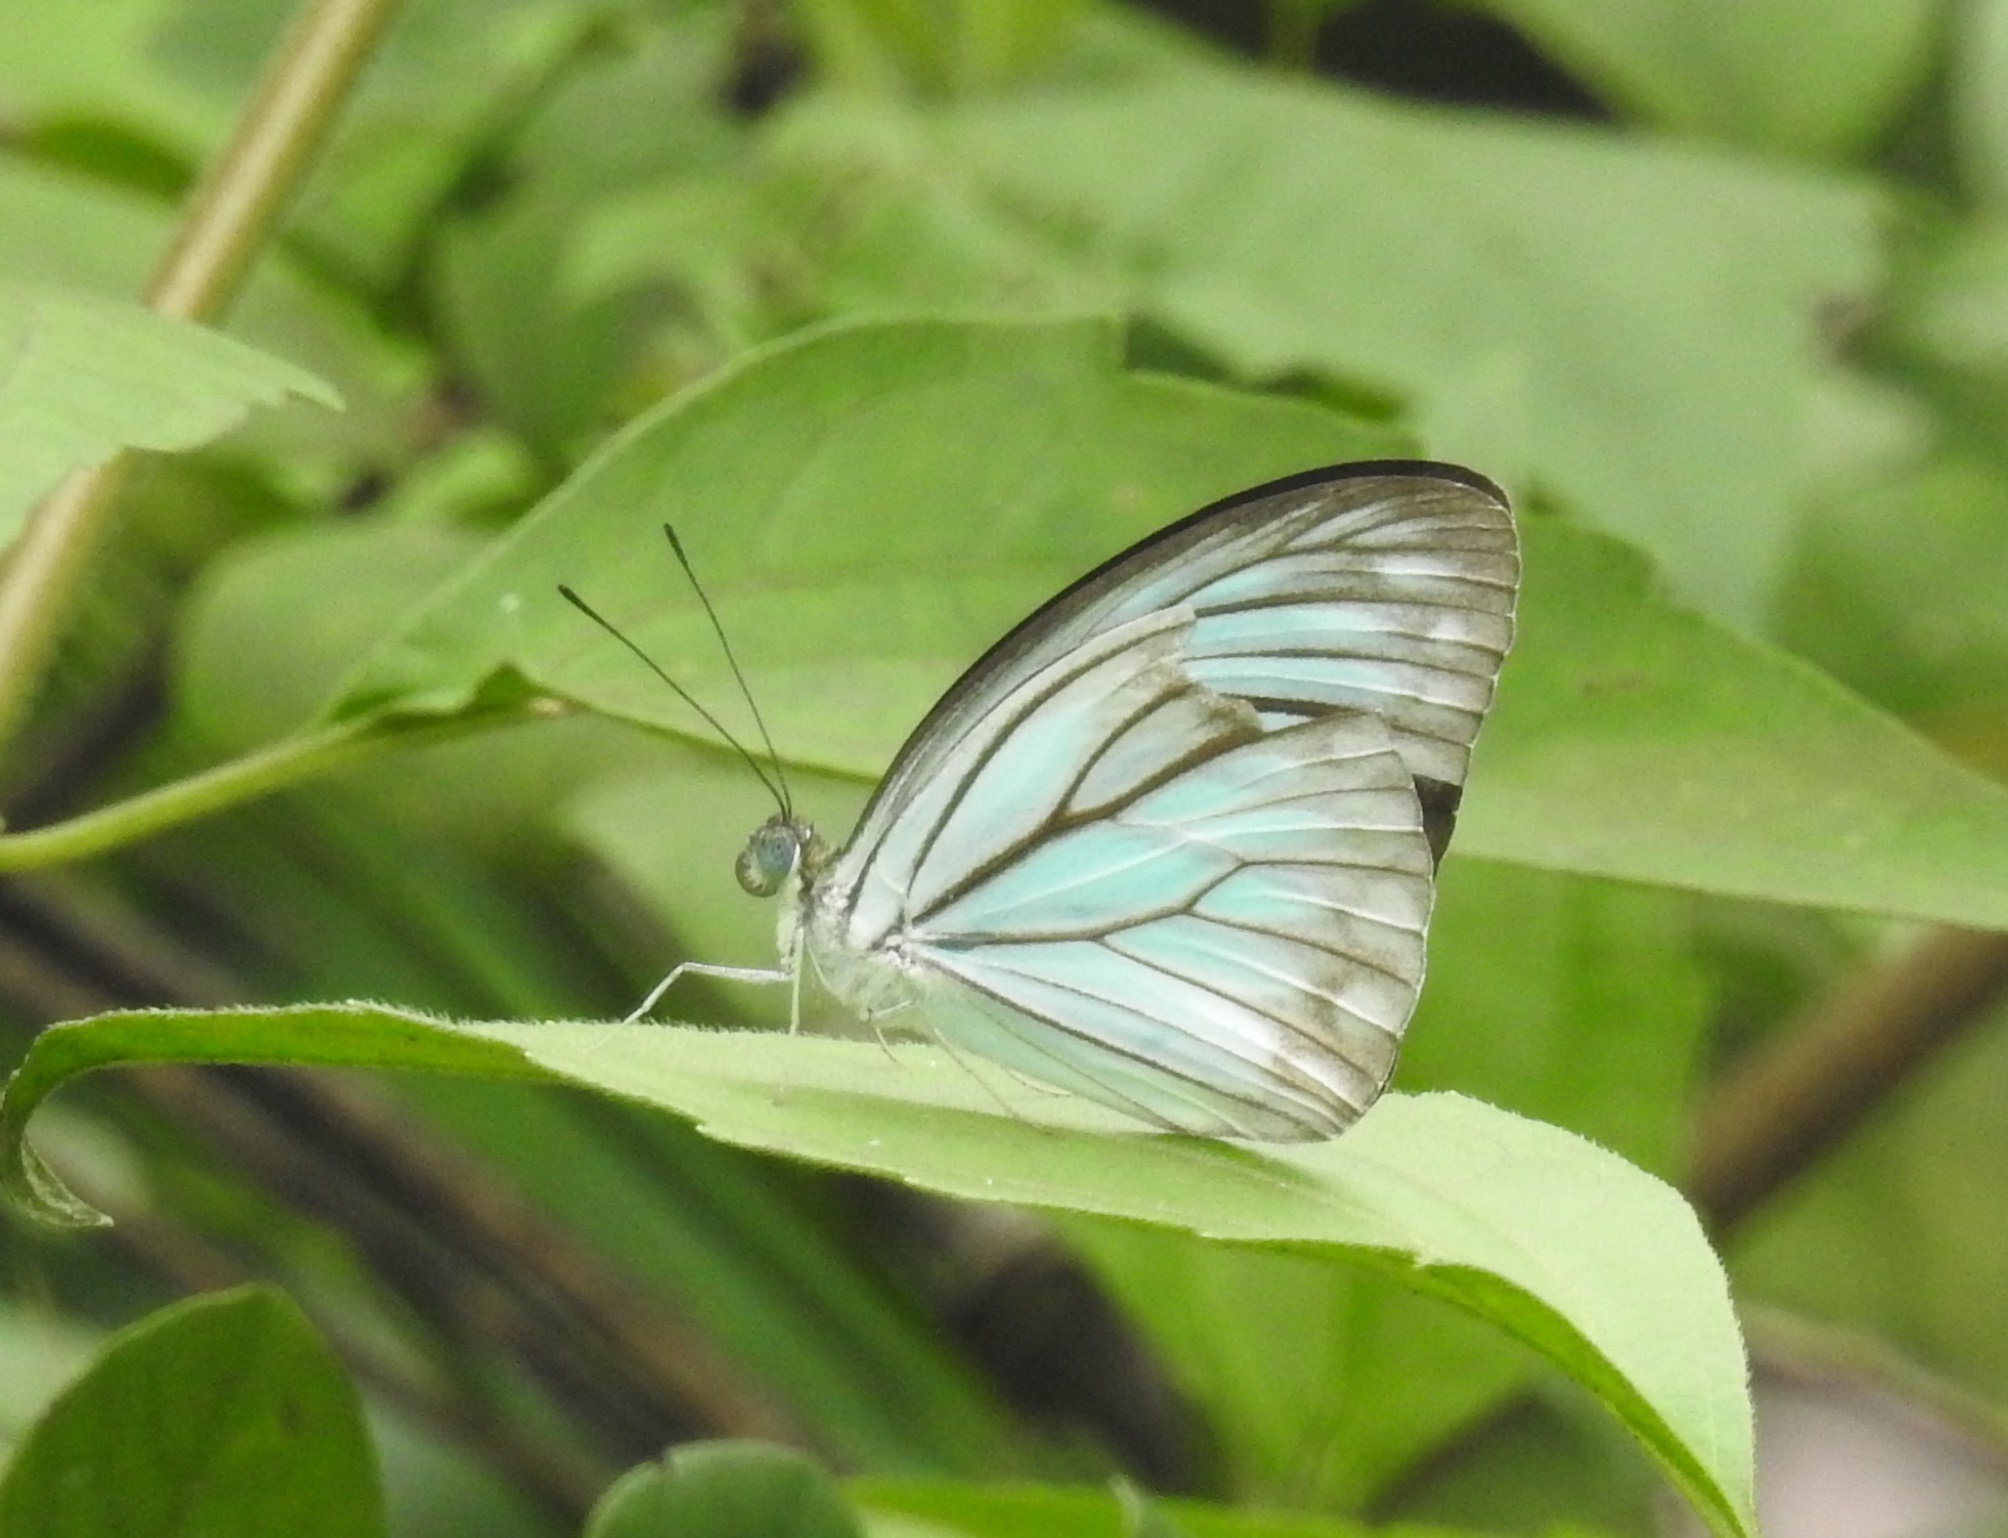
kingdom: Animalia
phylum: Arthropoda
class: Insecta
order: Lepidoptera
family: Pieridae
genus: Pareronia
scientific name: Pareronia hippia
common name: Indian wanderer
